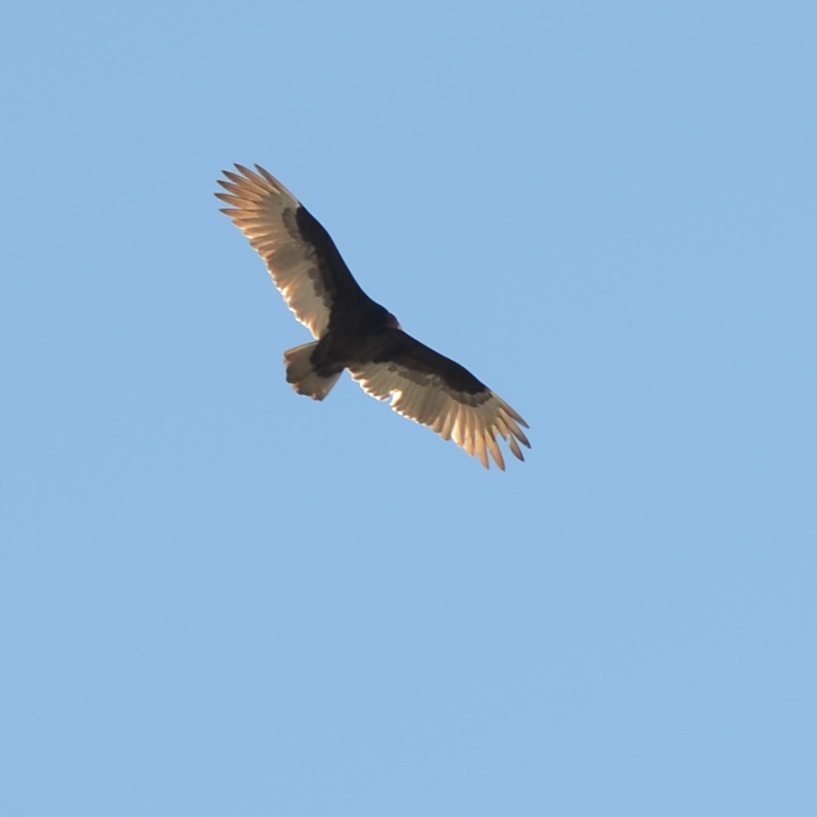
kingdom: Animalia
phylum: Chordata
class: Aves
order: Accipitriformes
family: Cathartidae
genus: Cathartes
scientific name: Cathartes aura
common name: Turkey vulture
